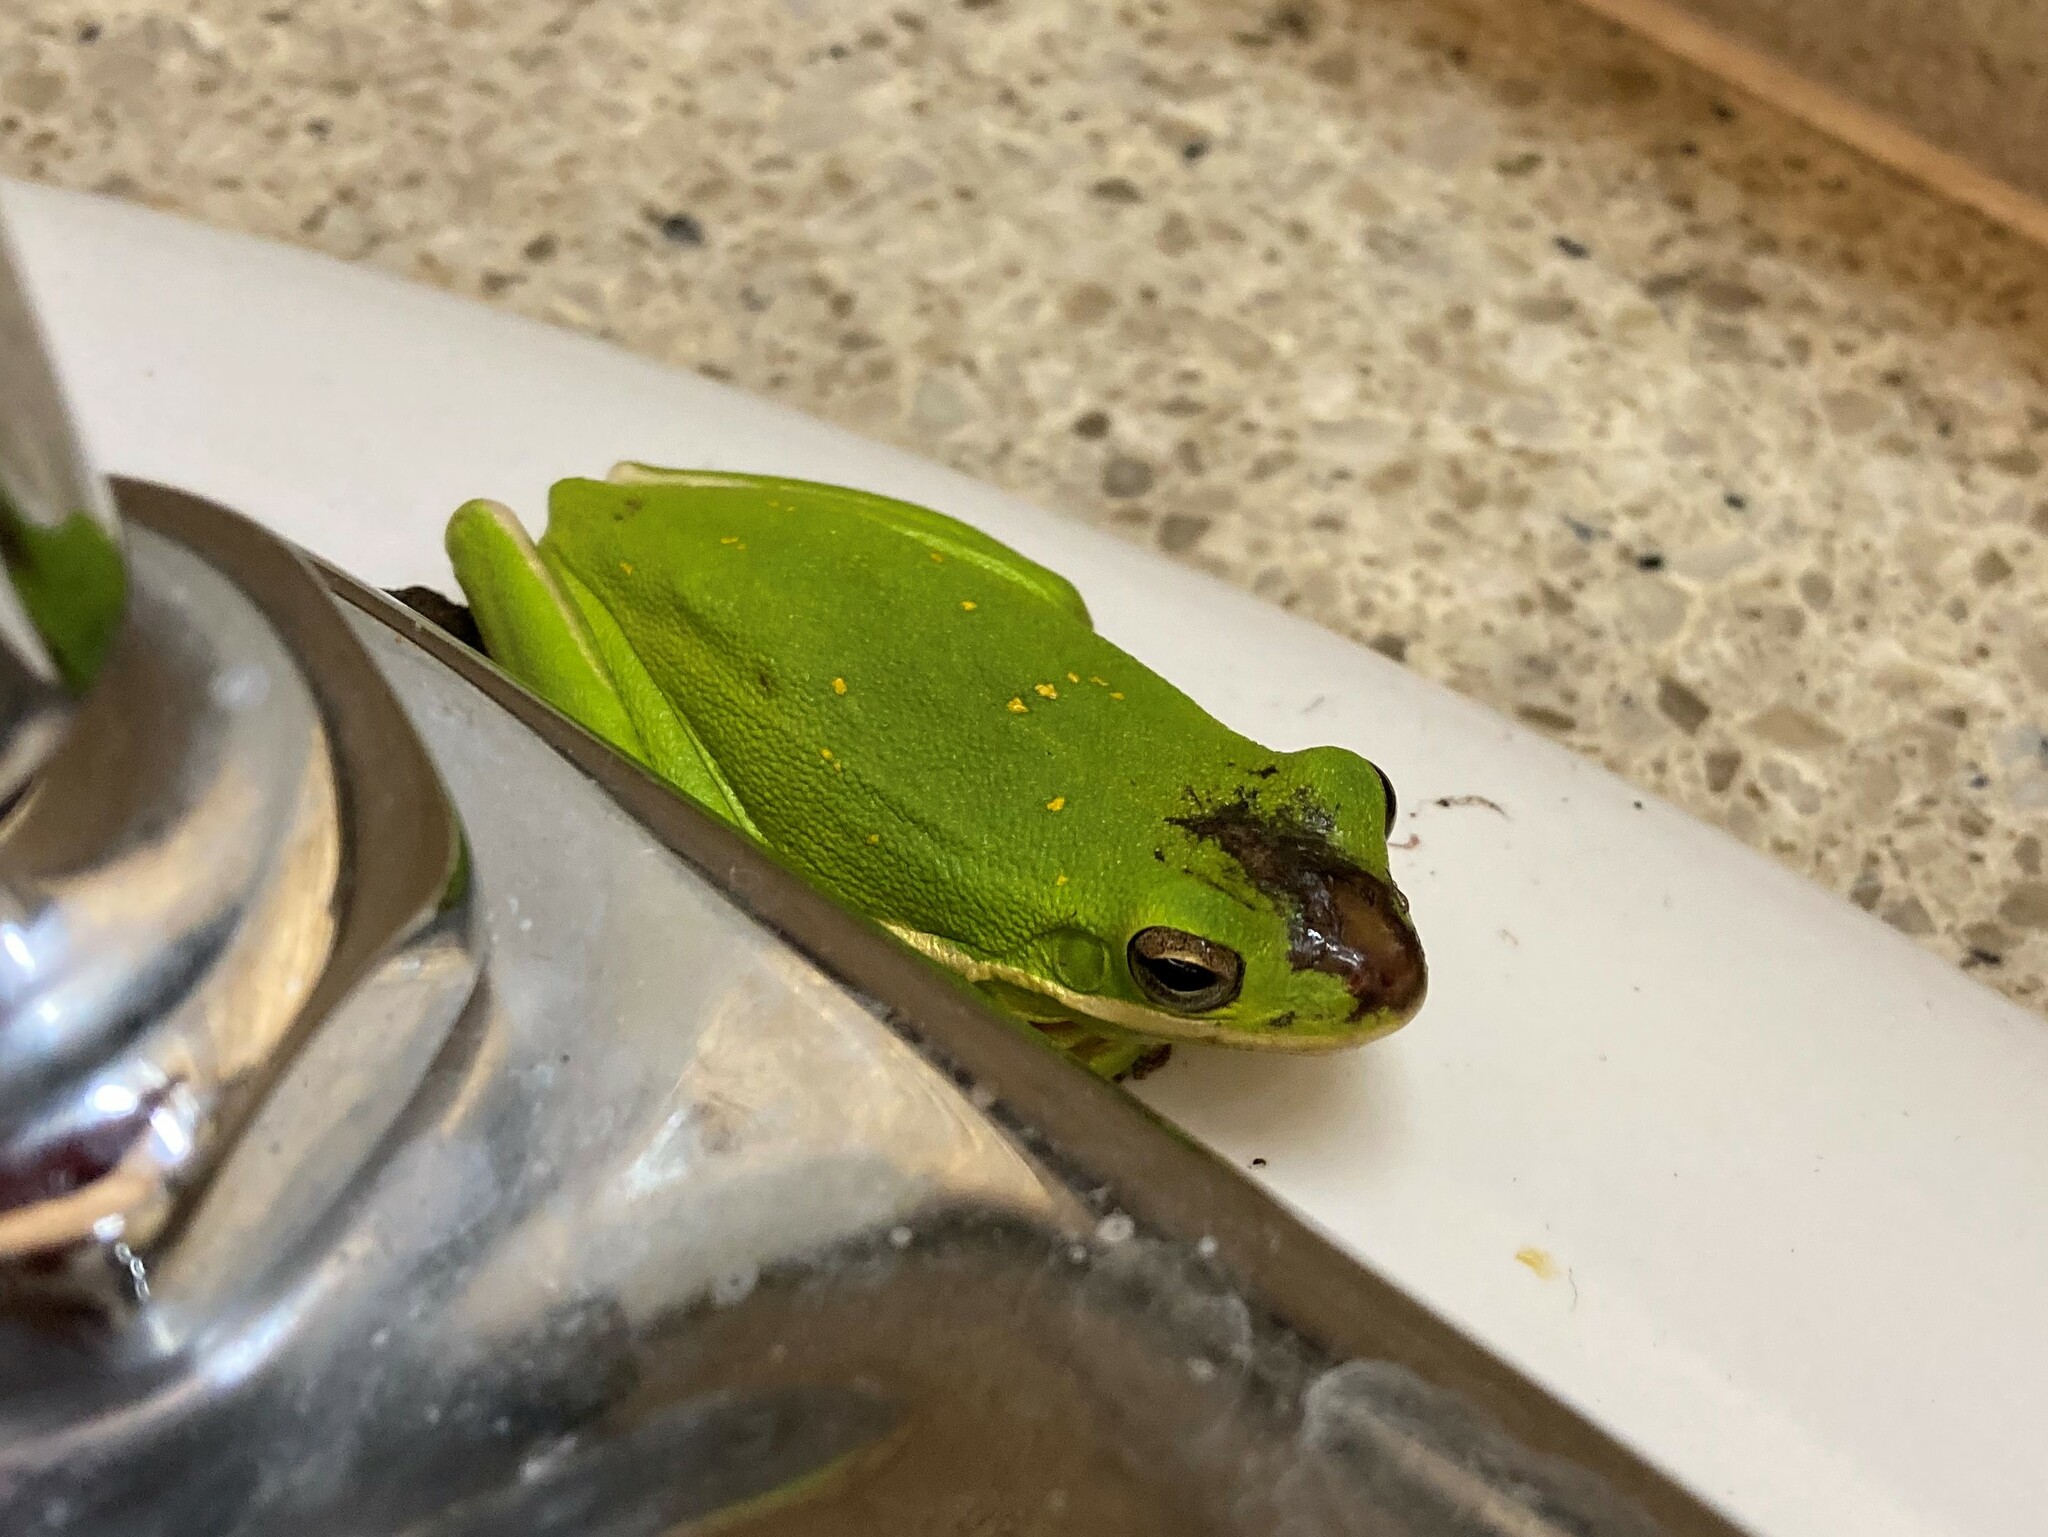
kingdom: Animalia
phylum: Chordata
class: Amphibia
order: Anura
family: Hylidae
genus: Dryophytes
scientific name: Dryophytes cinereus
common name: Green treefrog
